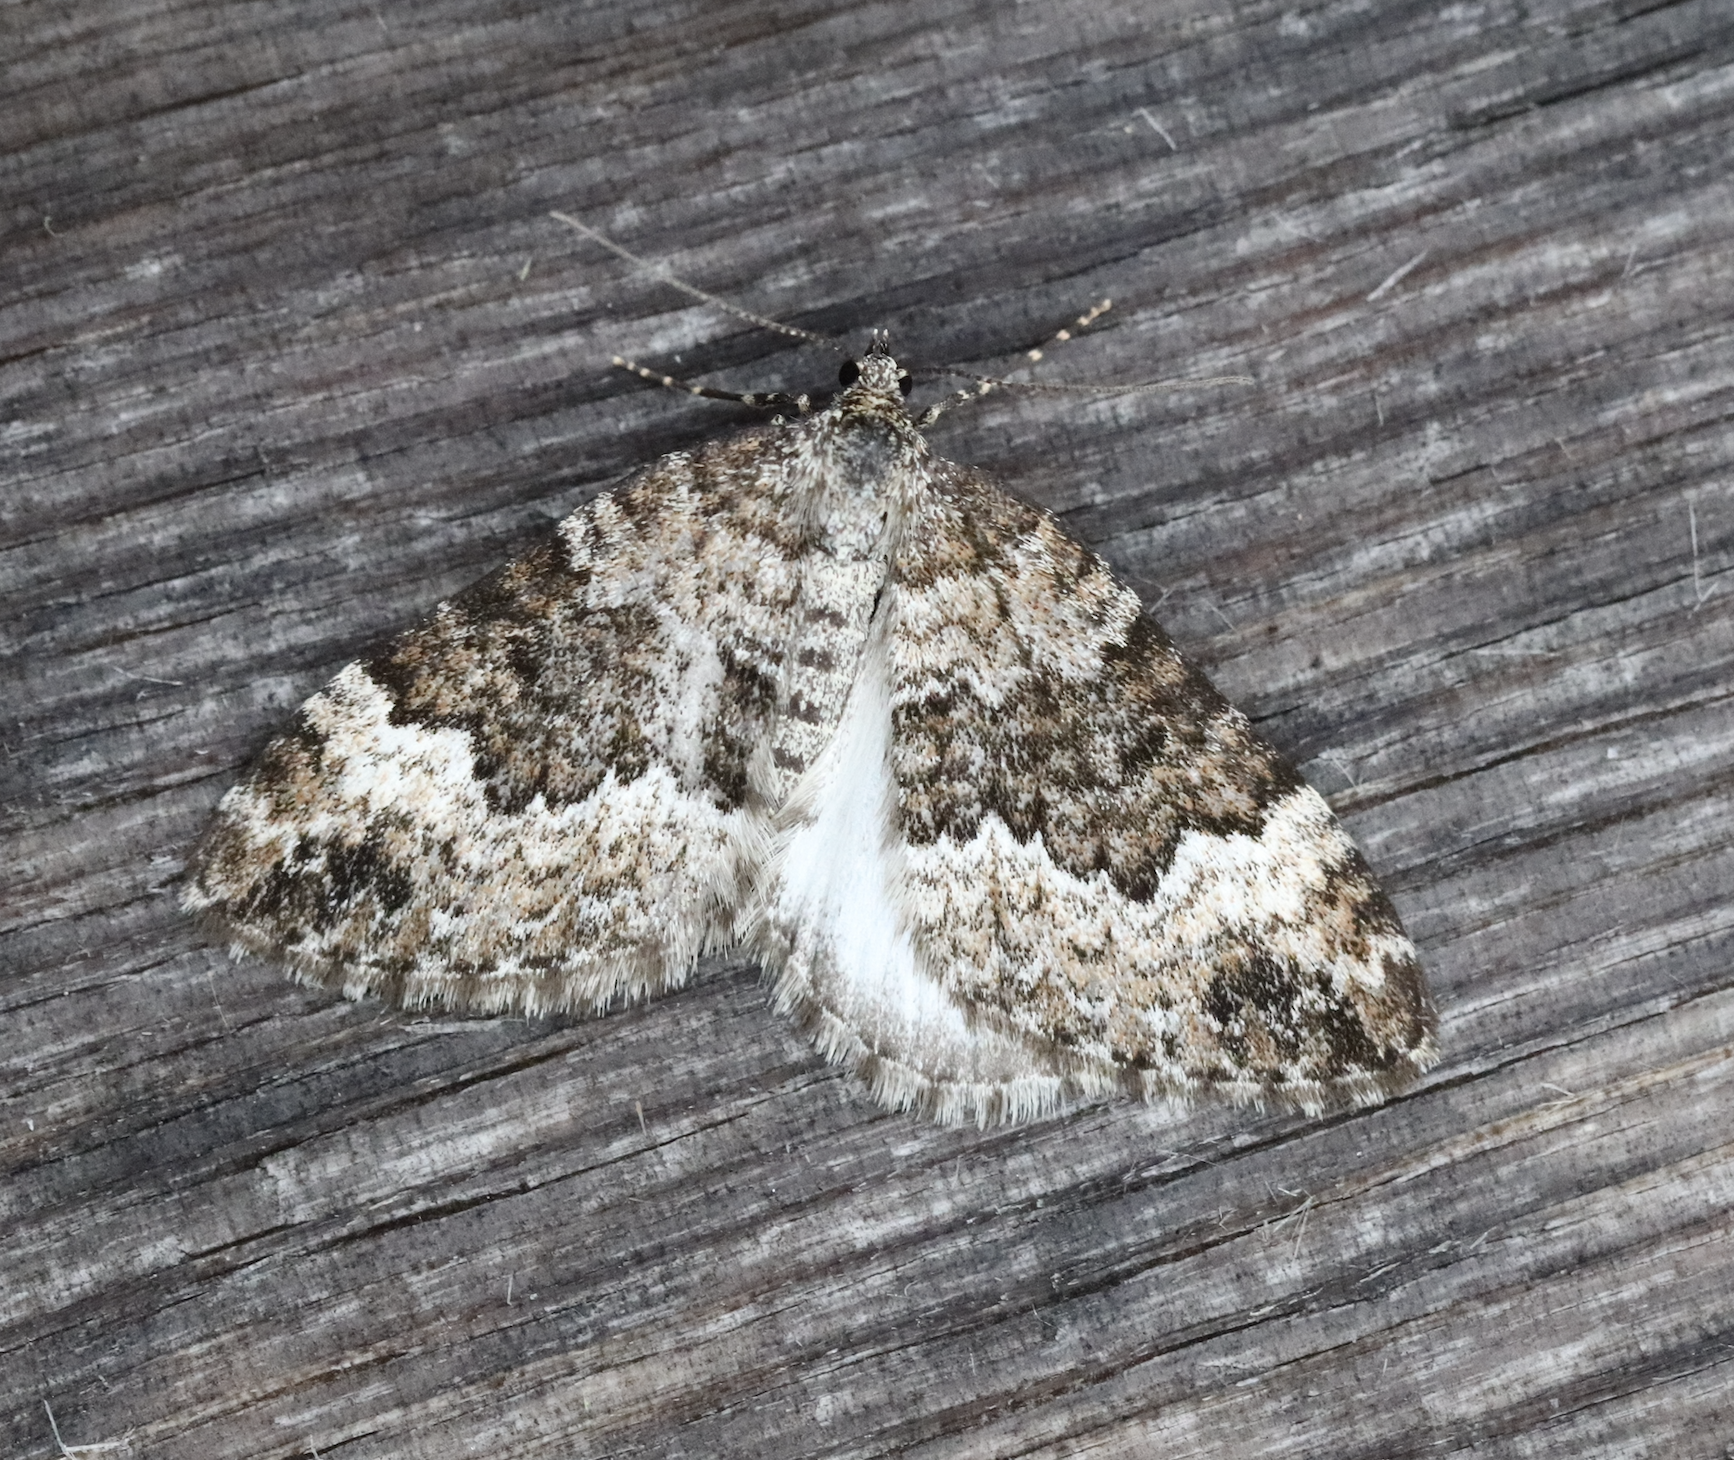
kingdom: Animalia
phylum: Arthropoda
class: Insecta
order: Lepidoptera
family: Geometridae
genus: Colostygia
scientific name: Colostygia turbata
